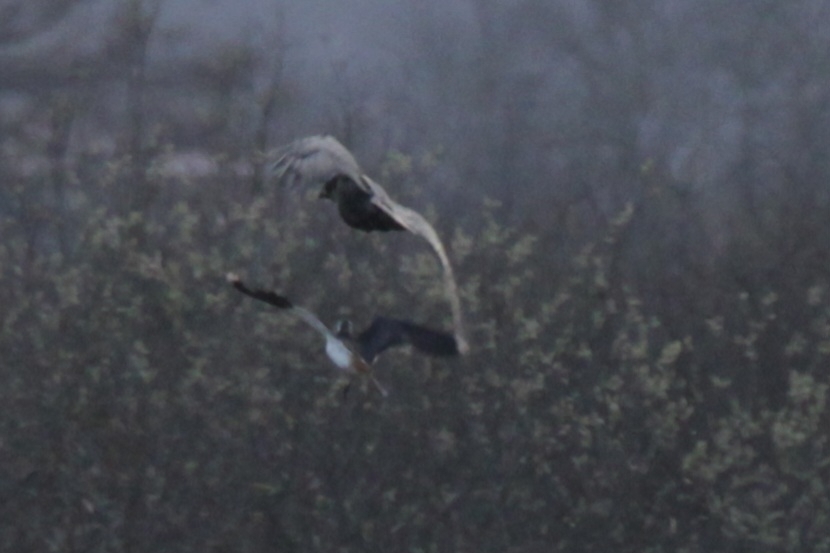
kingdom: Animalia
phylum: Chordata
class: Aves
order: Passeriformes
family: Corvidae
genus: Corvus
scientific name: Corvus corax
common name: Common raven
